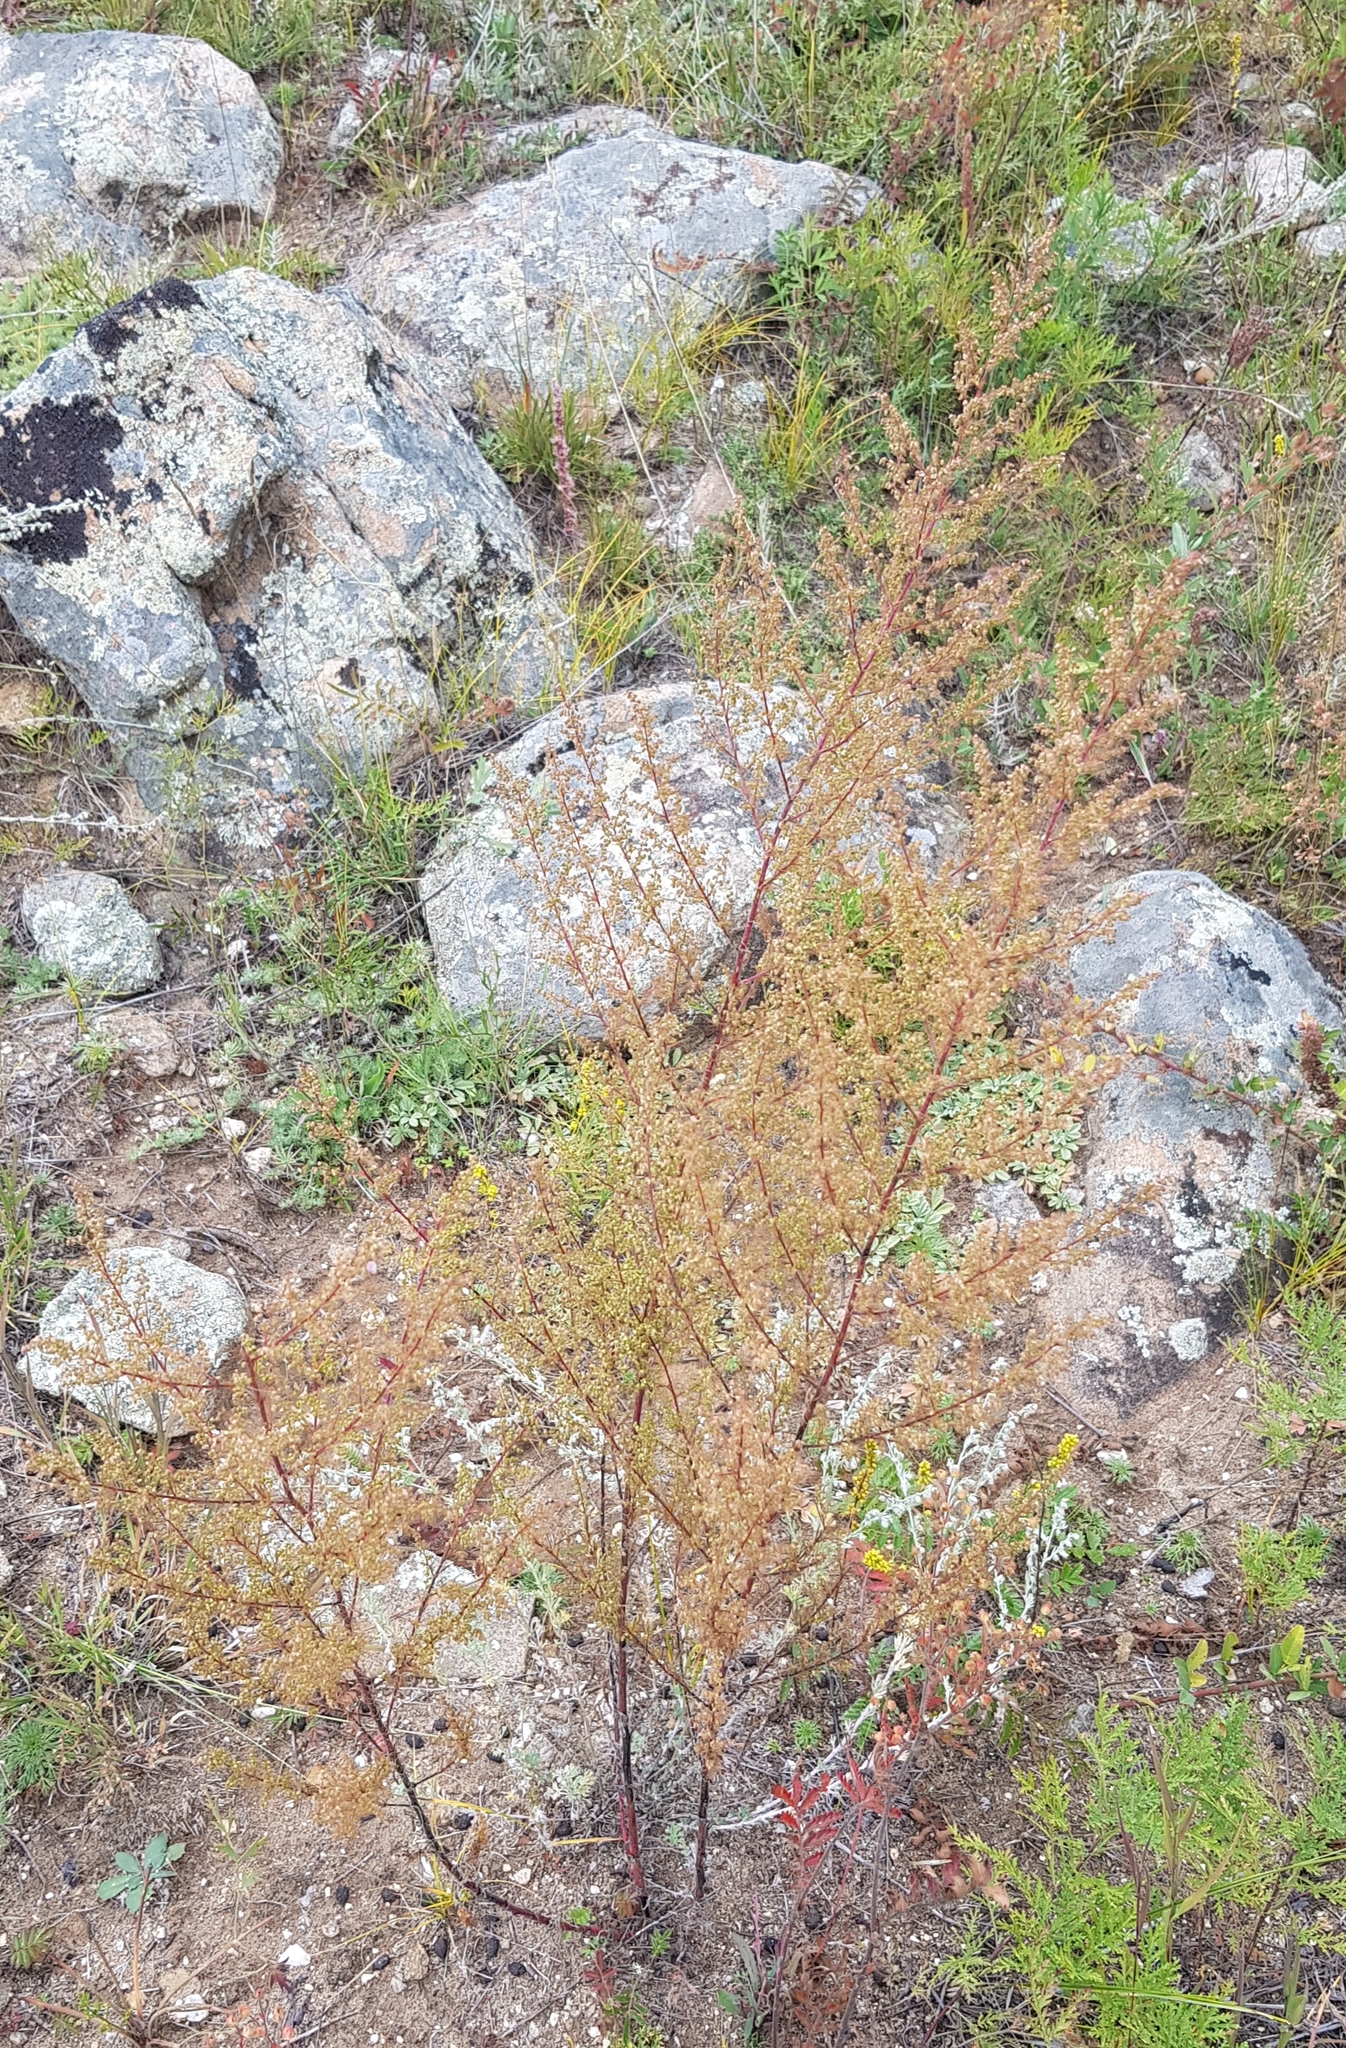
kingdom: Plantae
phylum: Tracheophyta
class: Magnoliopsida
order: Asterales
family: Asteraceae
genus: Artemisia
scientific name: Artemisia scoparia
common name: Redstem wormwood
